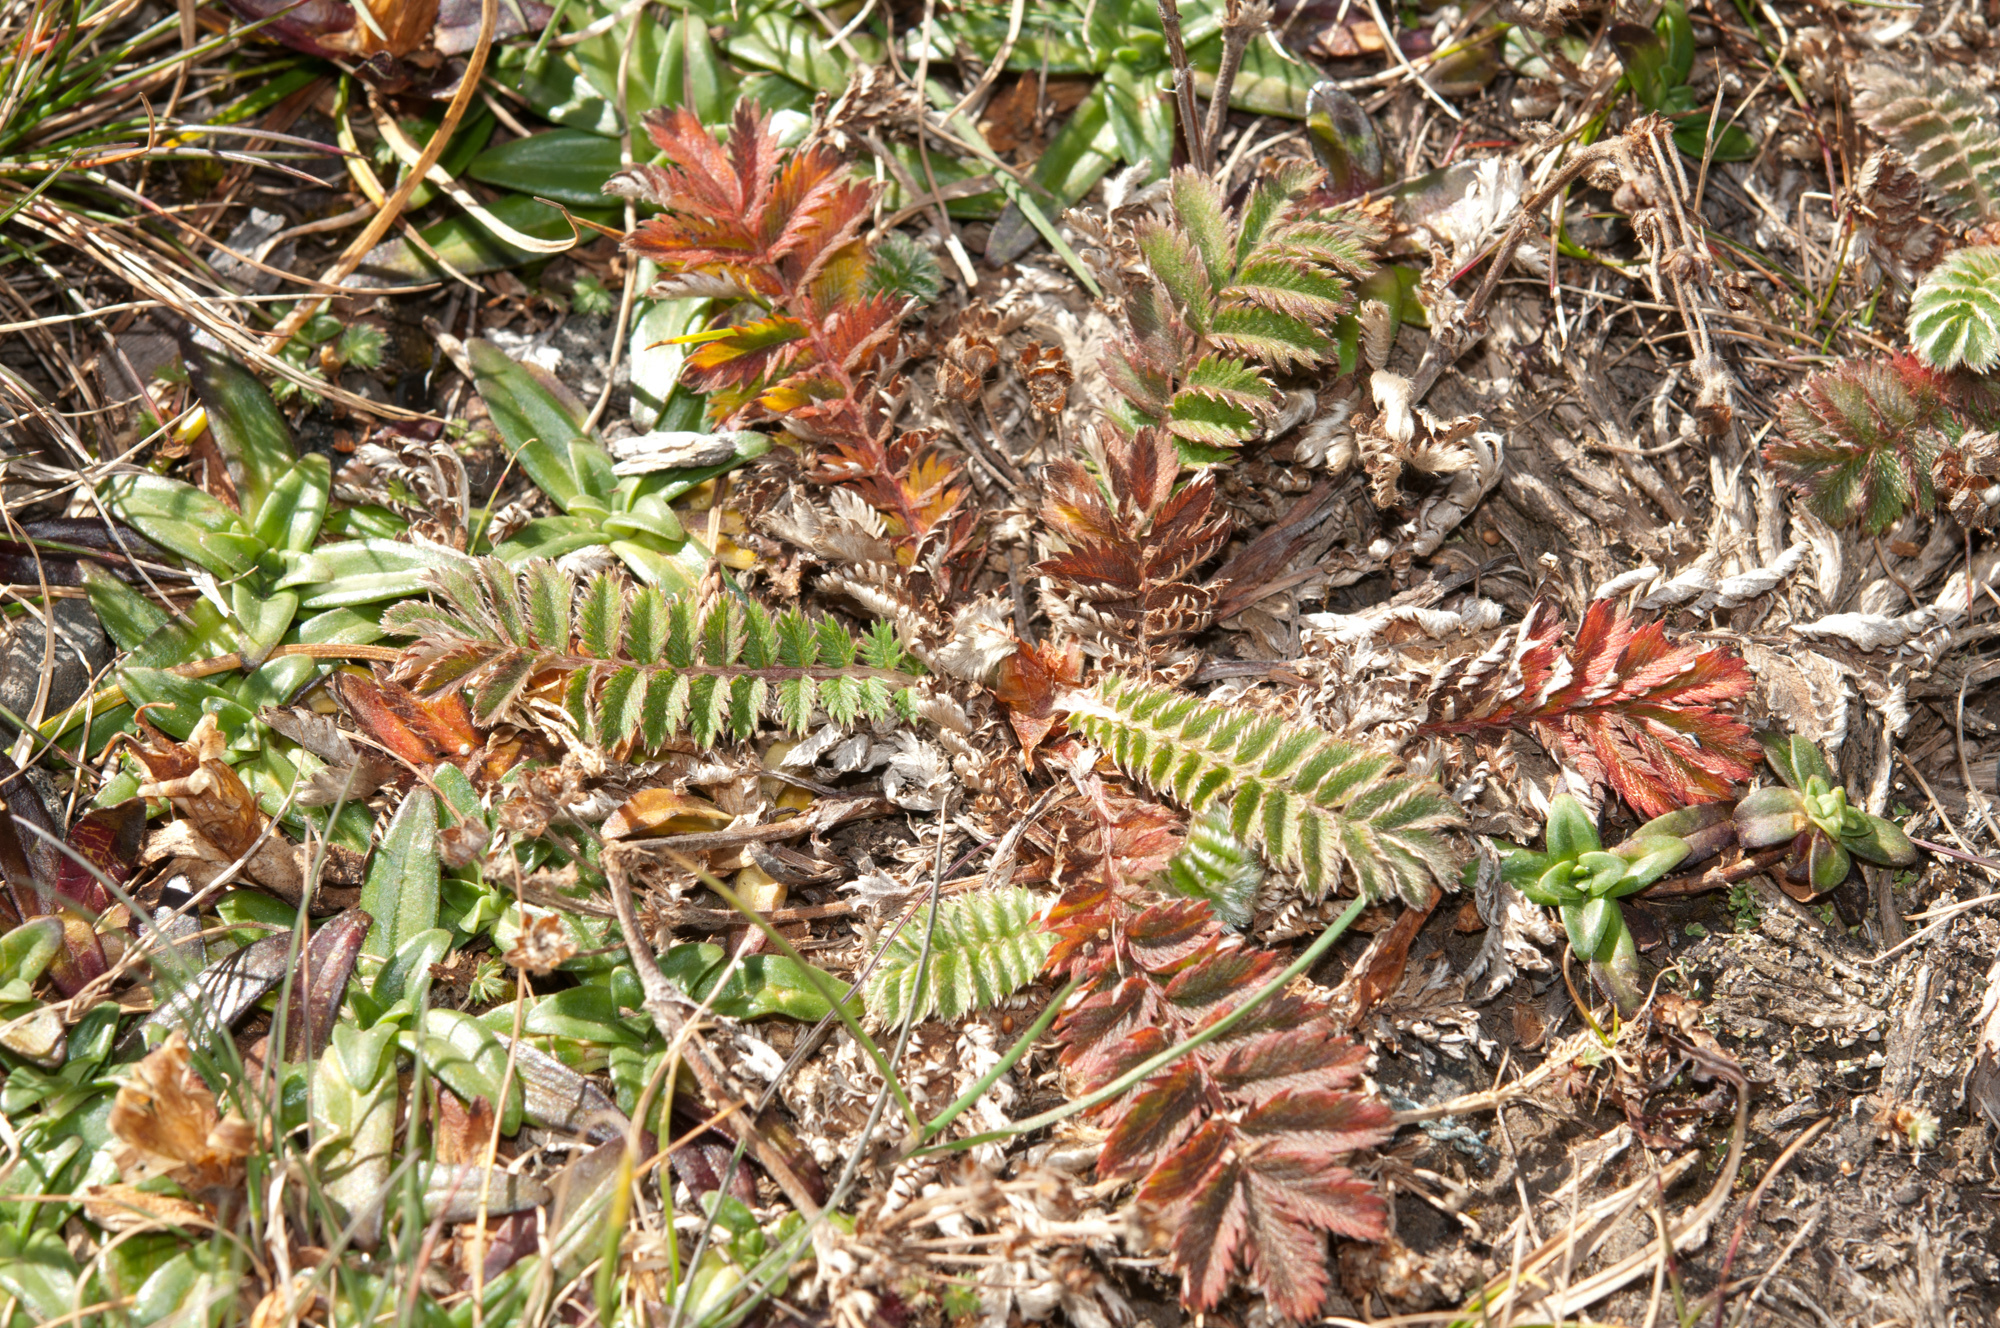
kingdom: Plantae
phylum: Tracheophyta
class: Magnoliopsida
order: Rosales
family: Rosaceae
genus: Argentina
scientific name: Argentina leuconota
